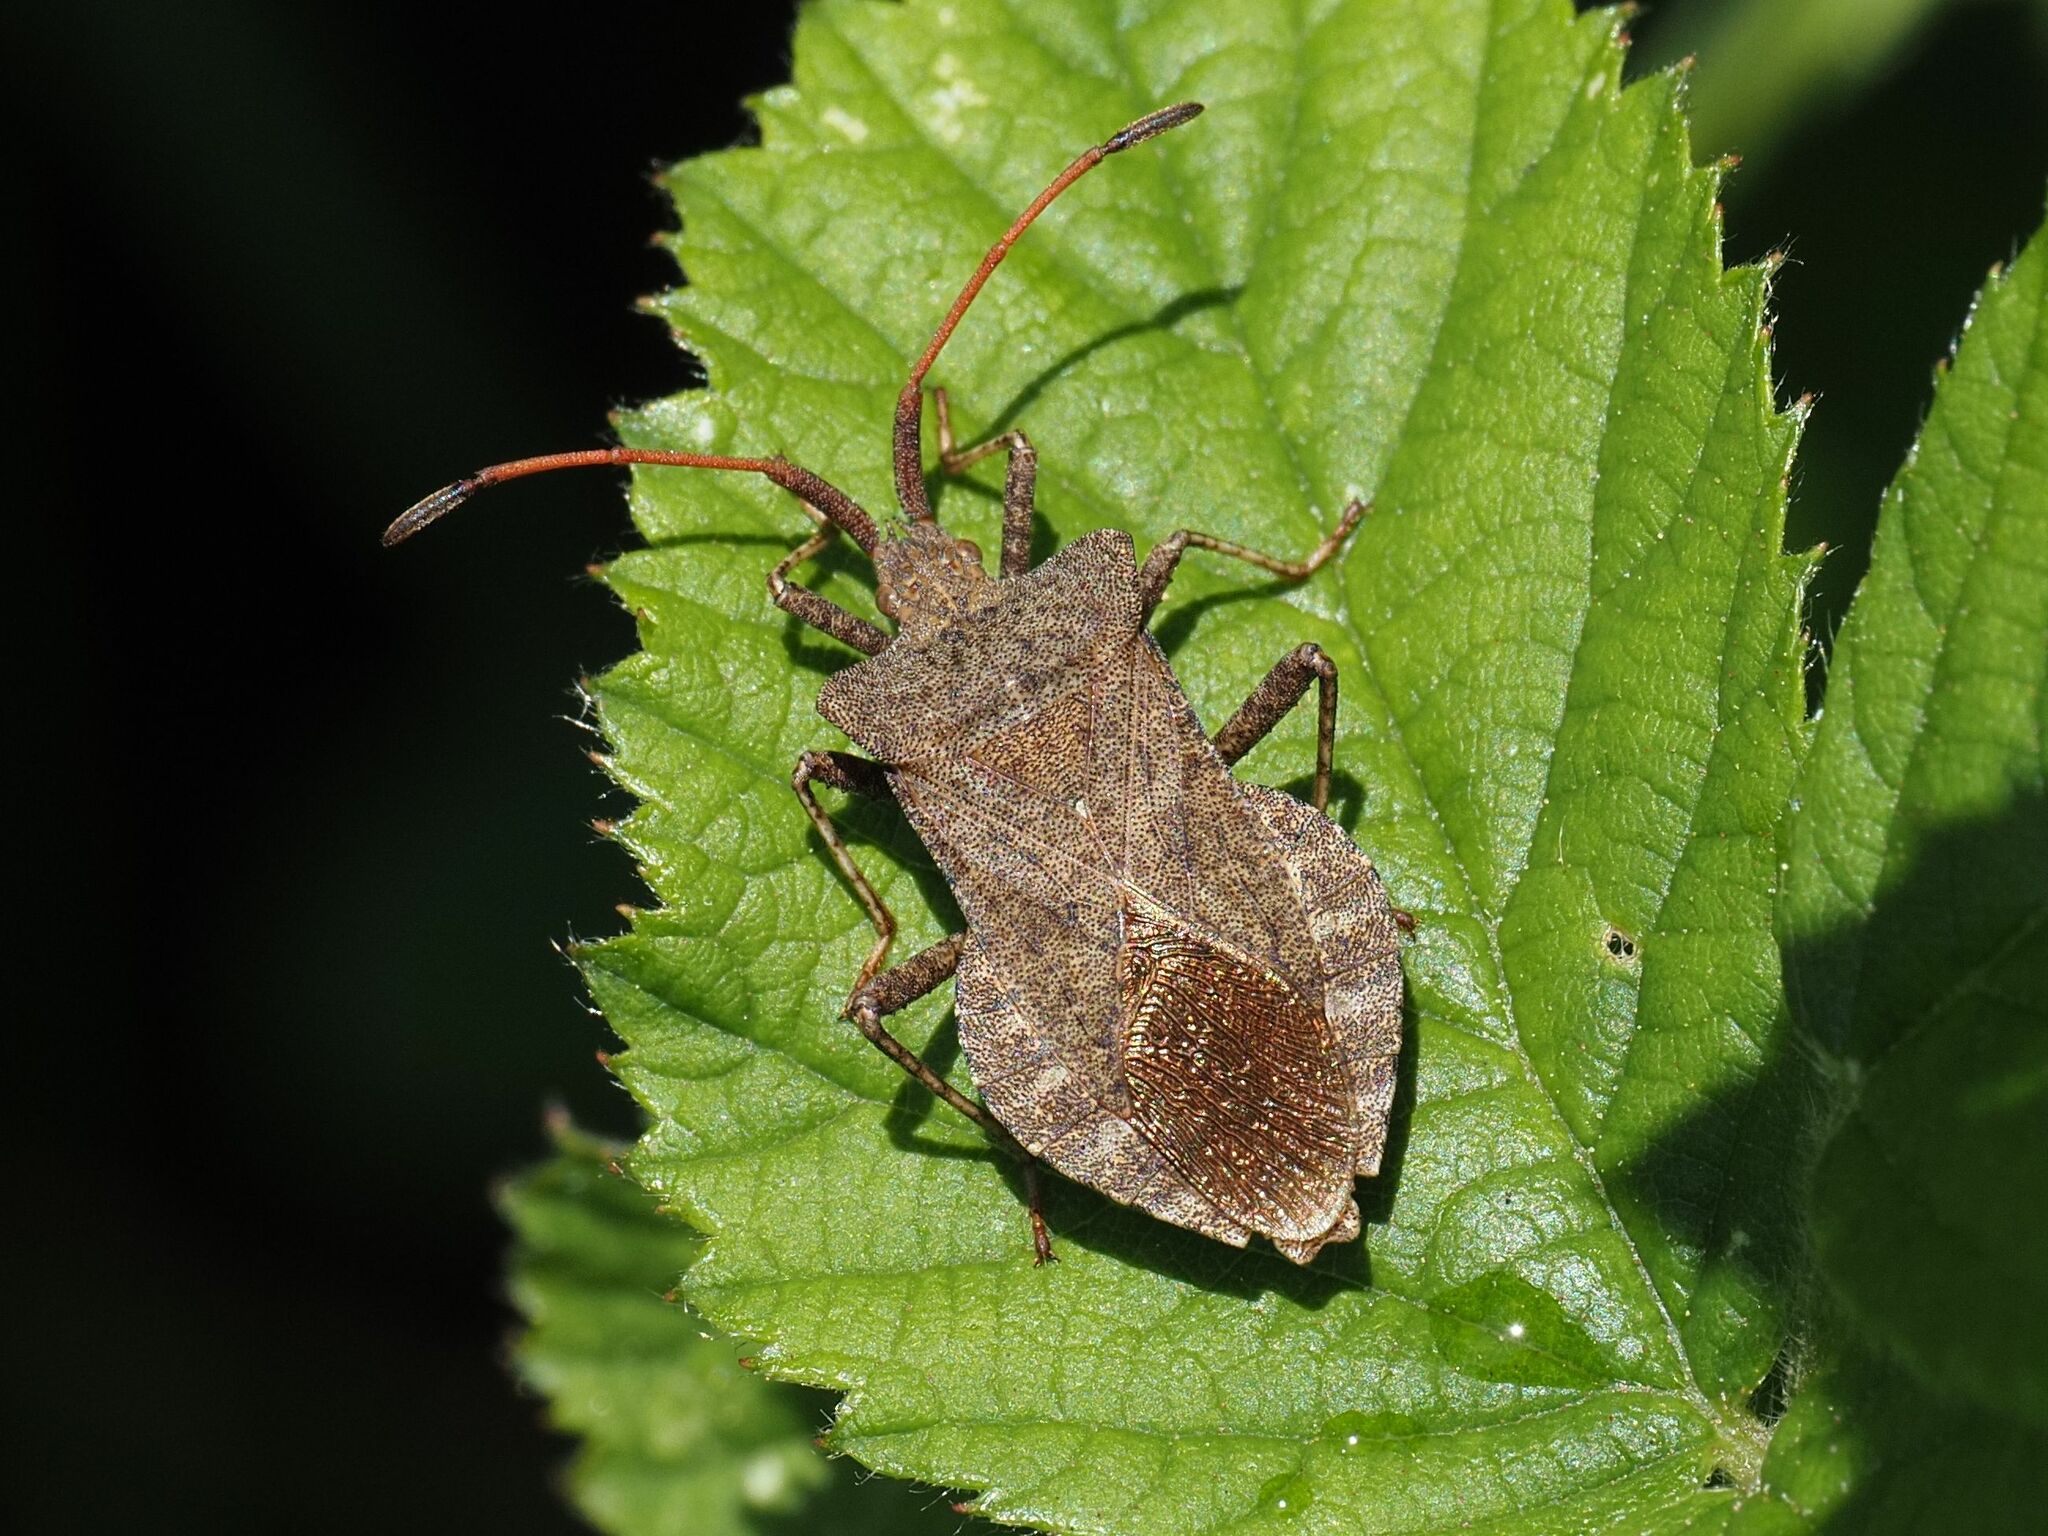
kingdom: Animalia
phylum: Arthropoda
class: Insecta
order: Hemiptera
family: Coreidae
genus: Coreus
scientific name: Coreus marginatus
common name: Dock bug
